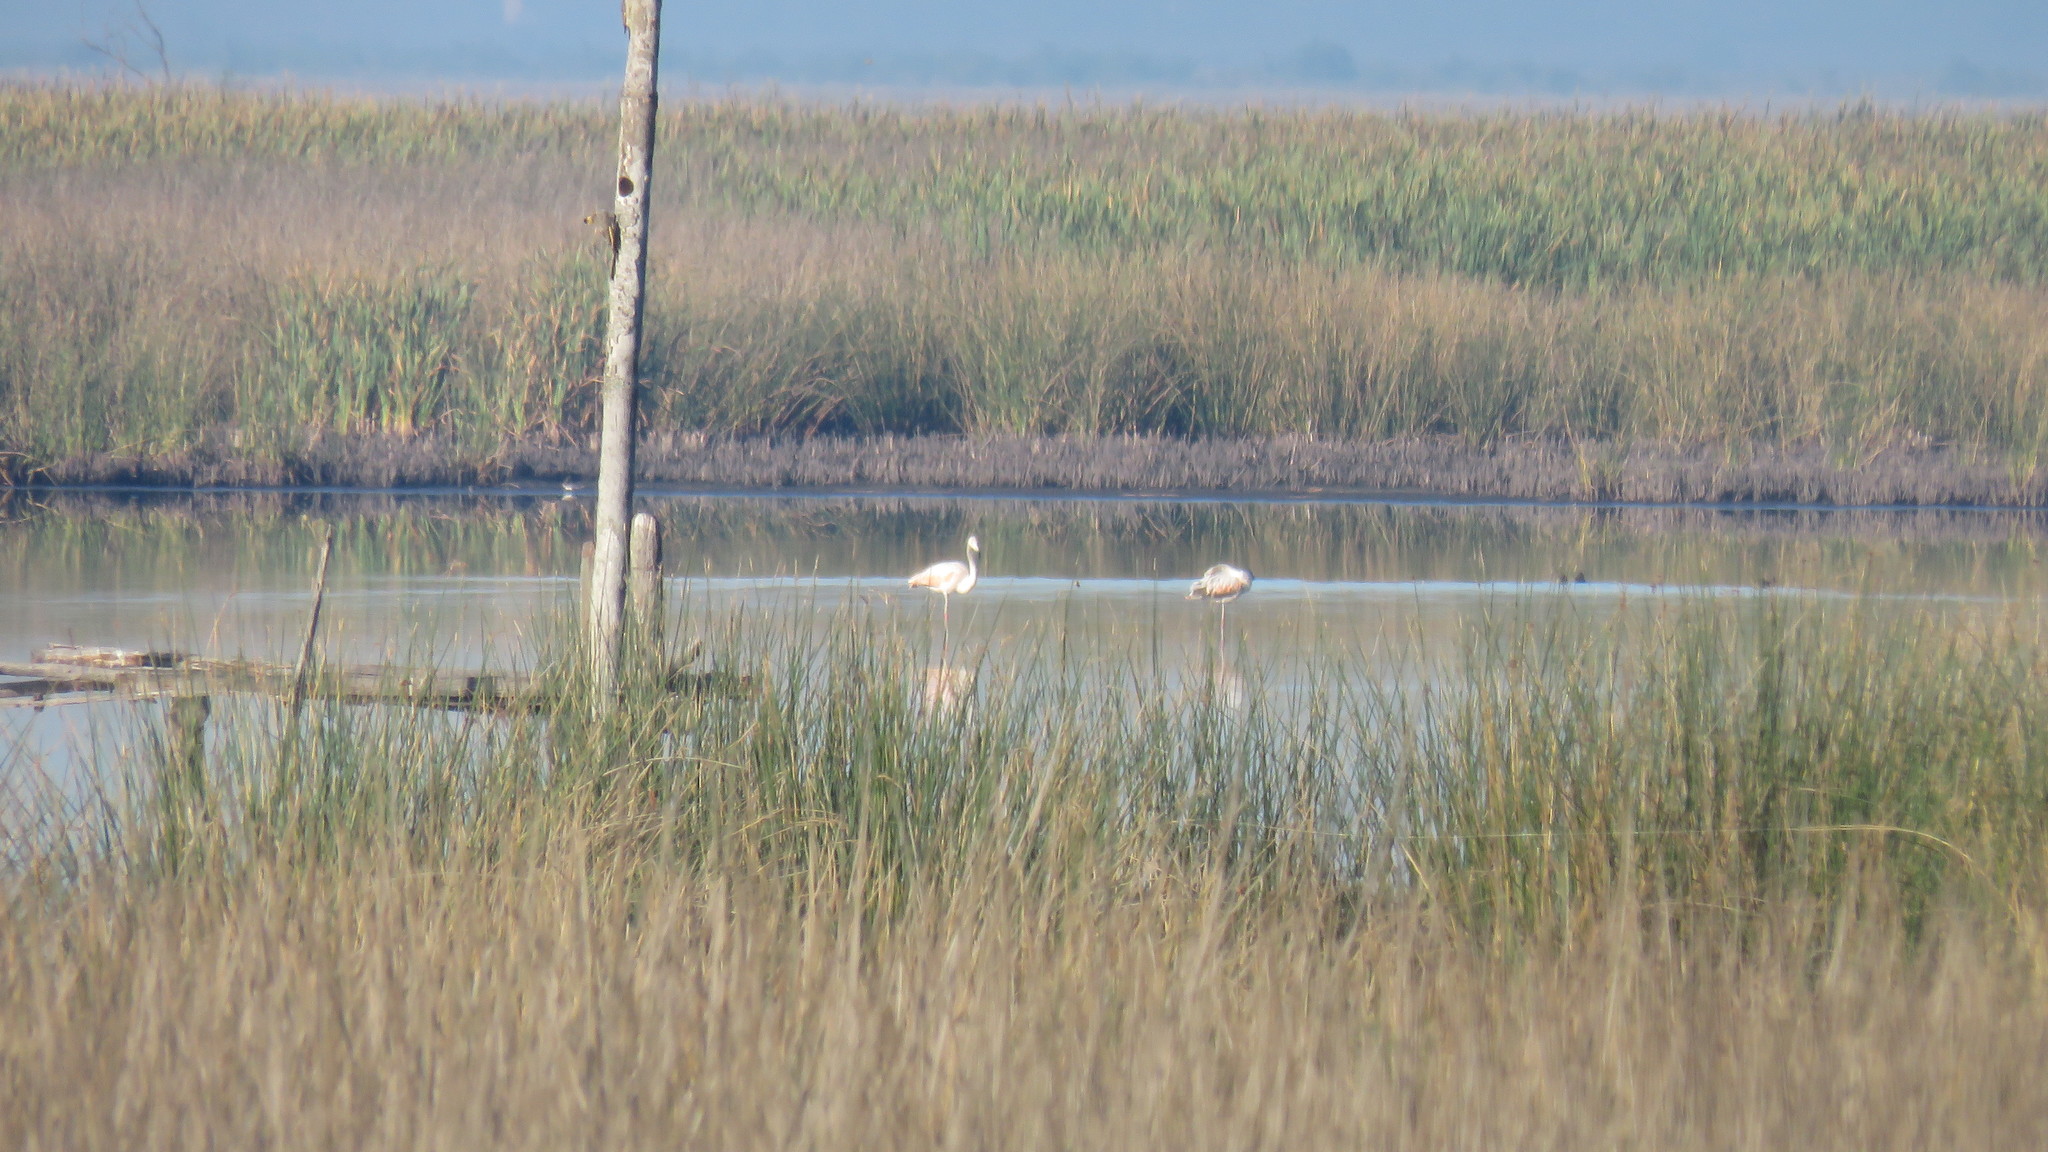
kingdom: Animalia
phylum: Chordata
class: Aves
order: Phoenicopteriformes
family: Phoenicopteridae
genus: Phoenicopterus
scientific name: Phoenicopterus chilensis
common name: Chilean flamingo
